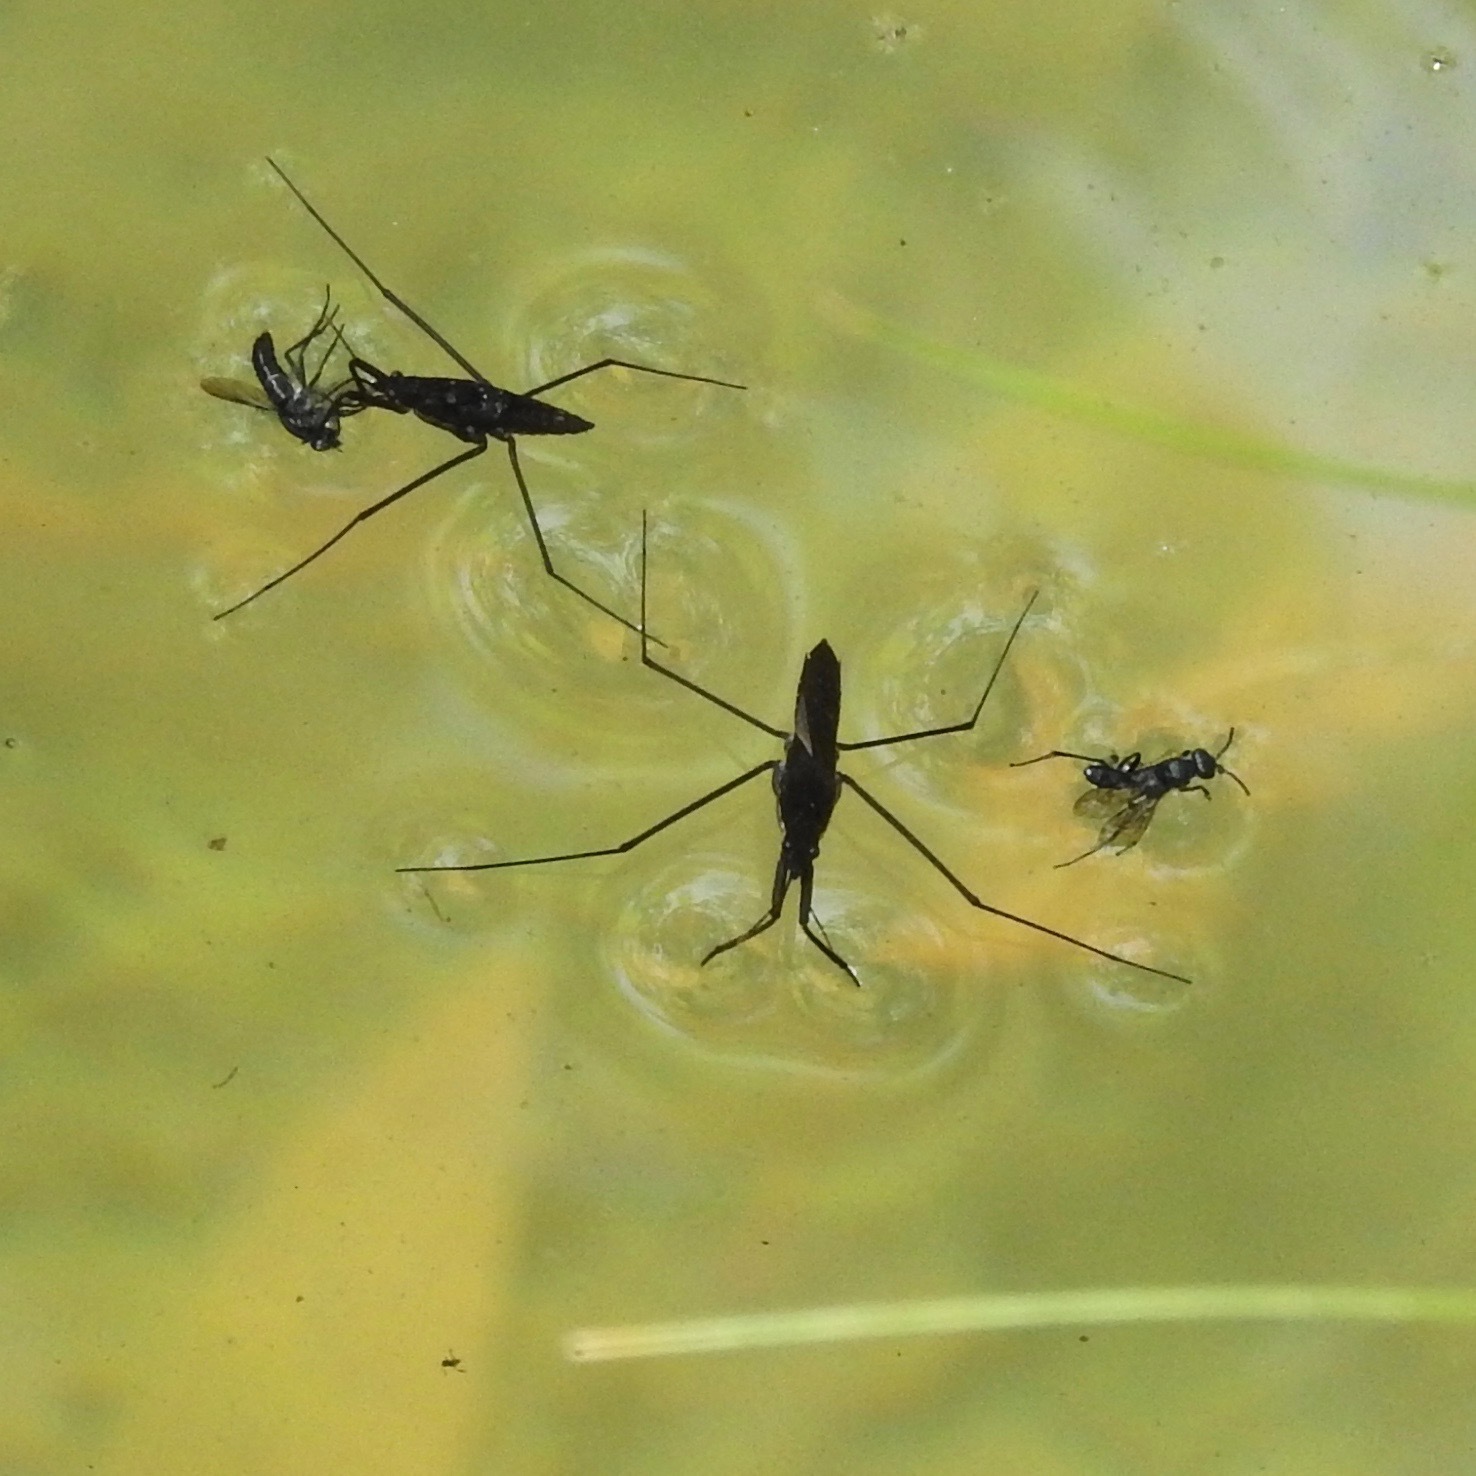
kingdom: Animalia
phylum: Arthropoda
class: Insecta
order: Hemiptera
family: Gerridae
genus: Aquarius
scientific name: Aquarius remigis
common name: Common water strider
